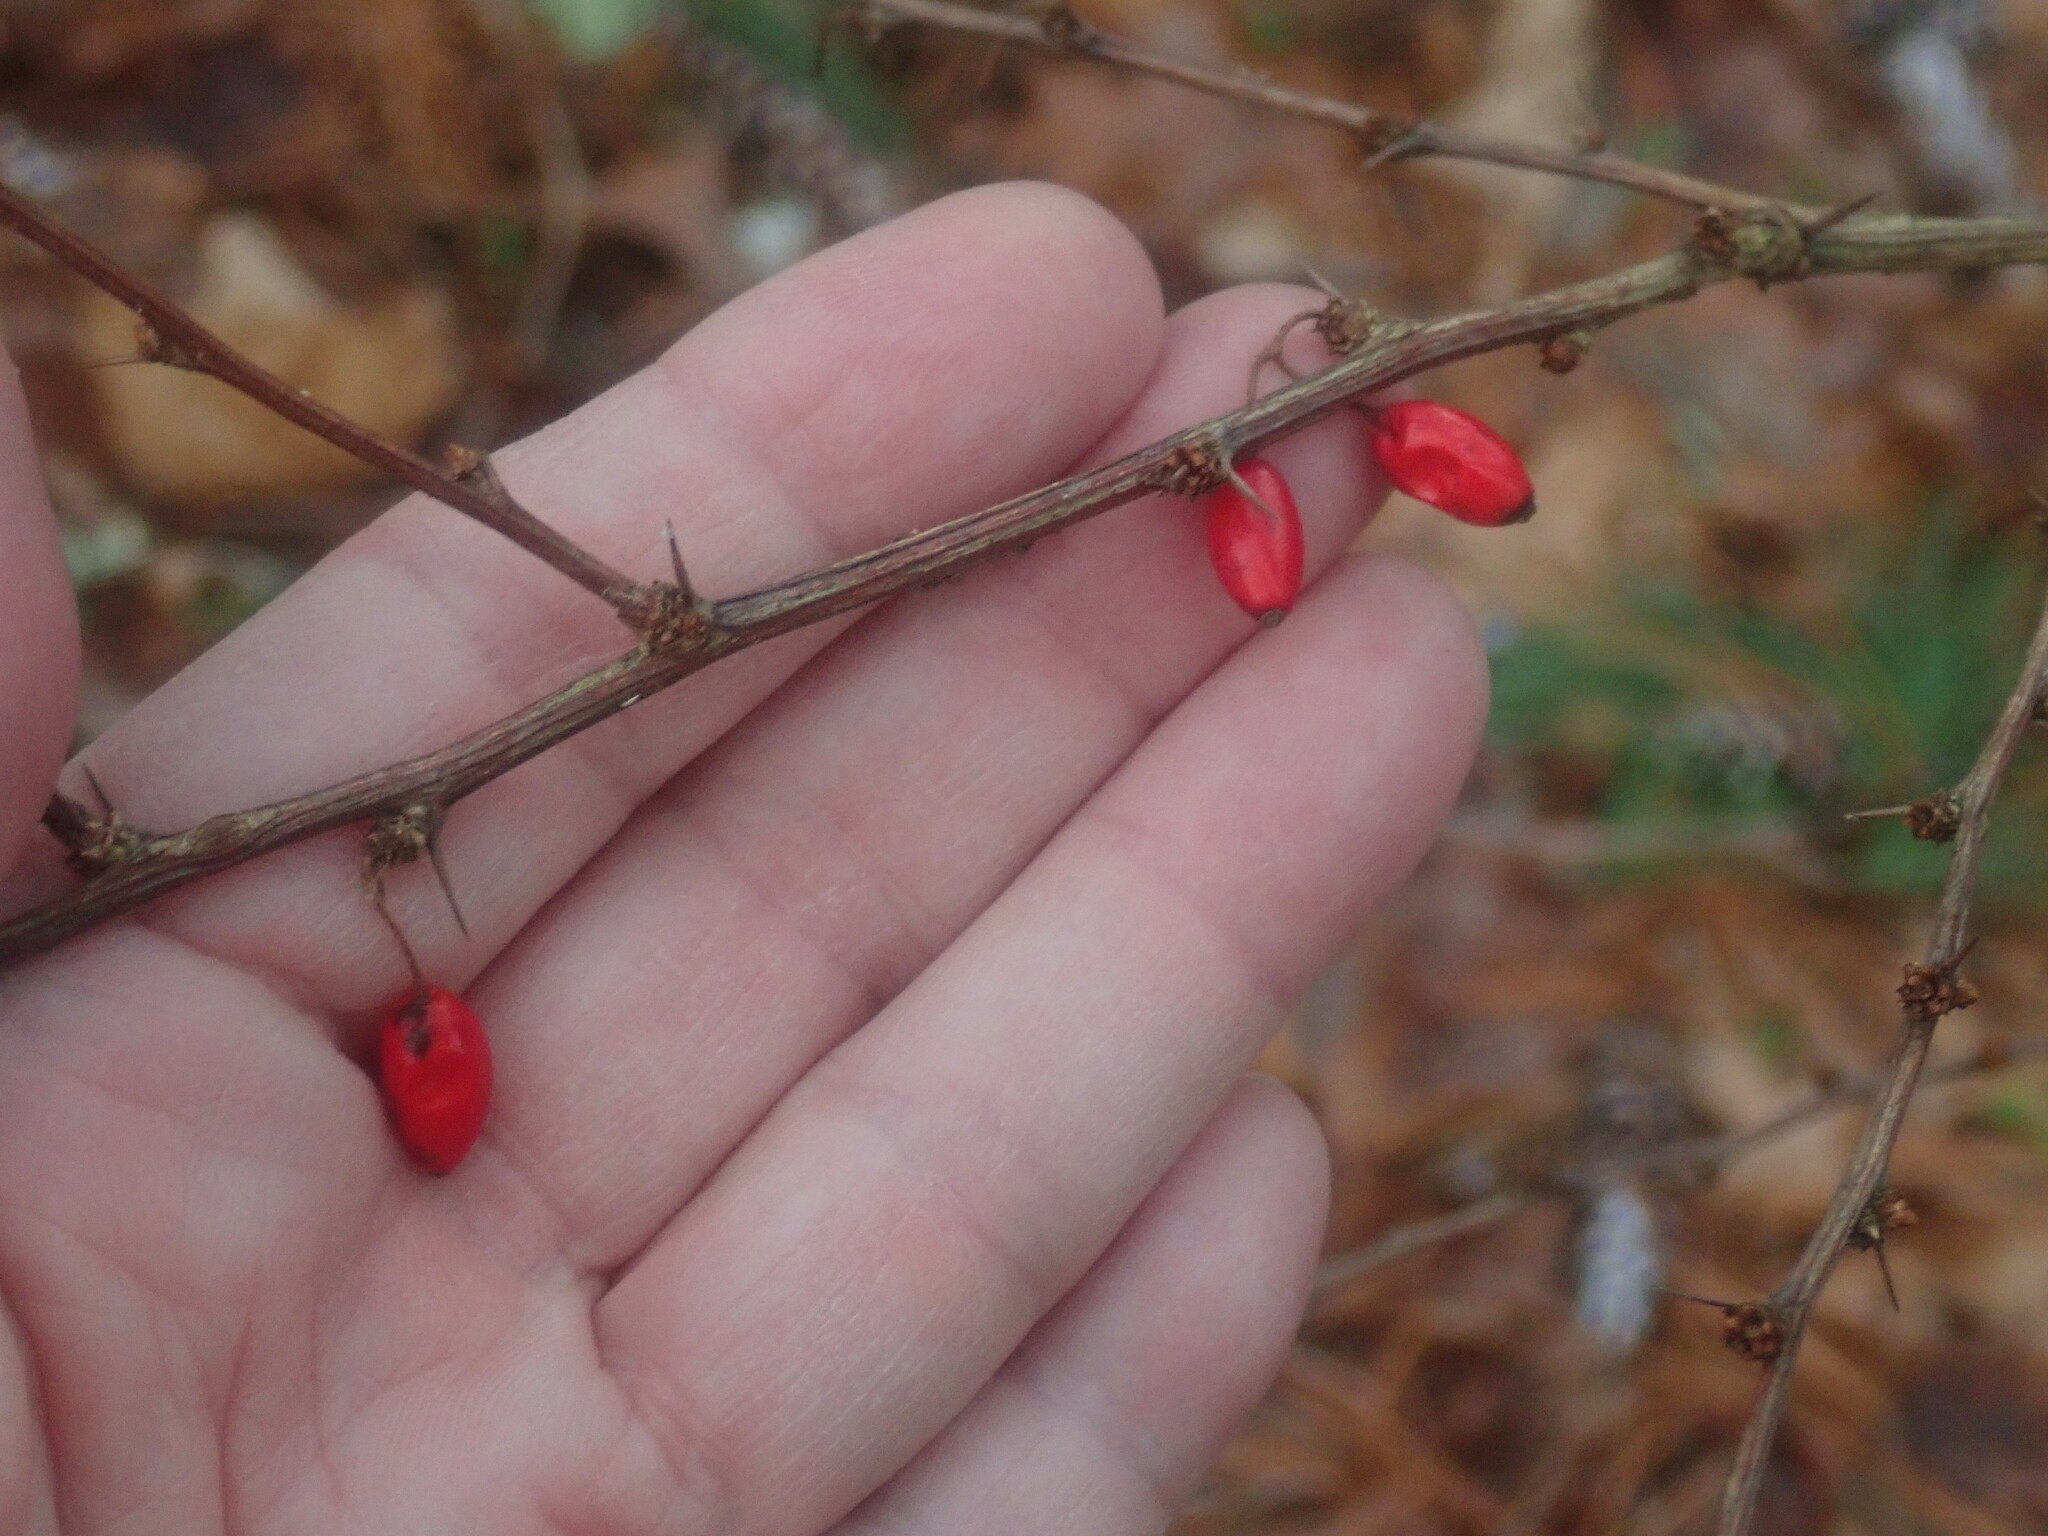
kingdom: Plantae
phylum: Tracheophyta
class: Magnoliopsida
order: Ranunculales
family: Berberidaceae
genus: Berberis
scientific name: Berberis thunbergii
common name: Japanese barberry
